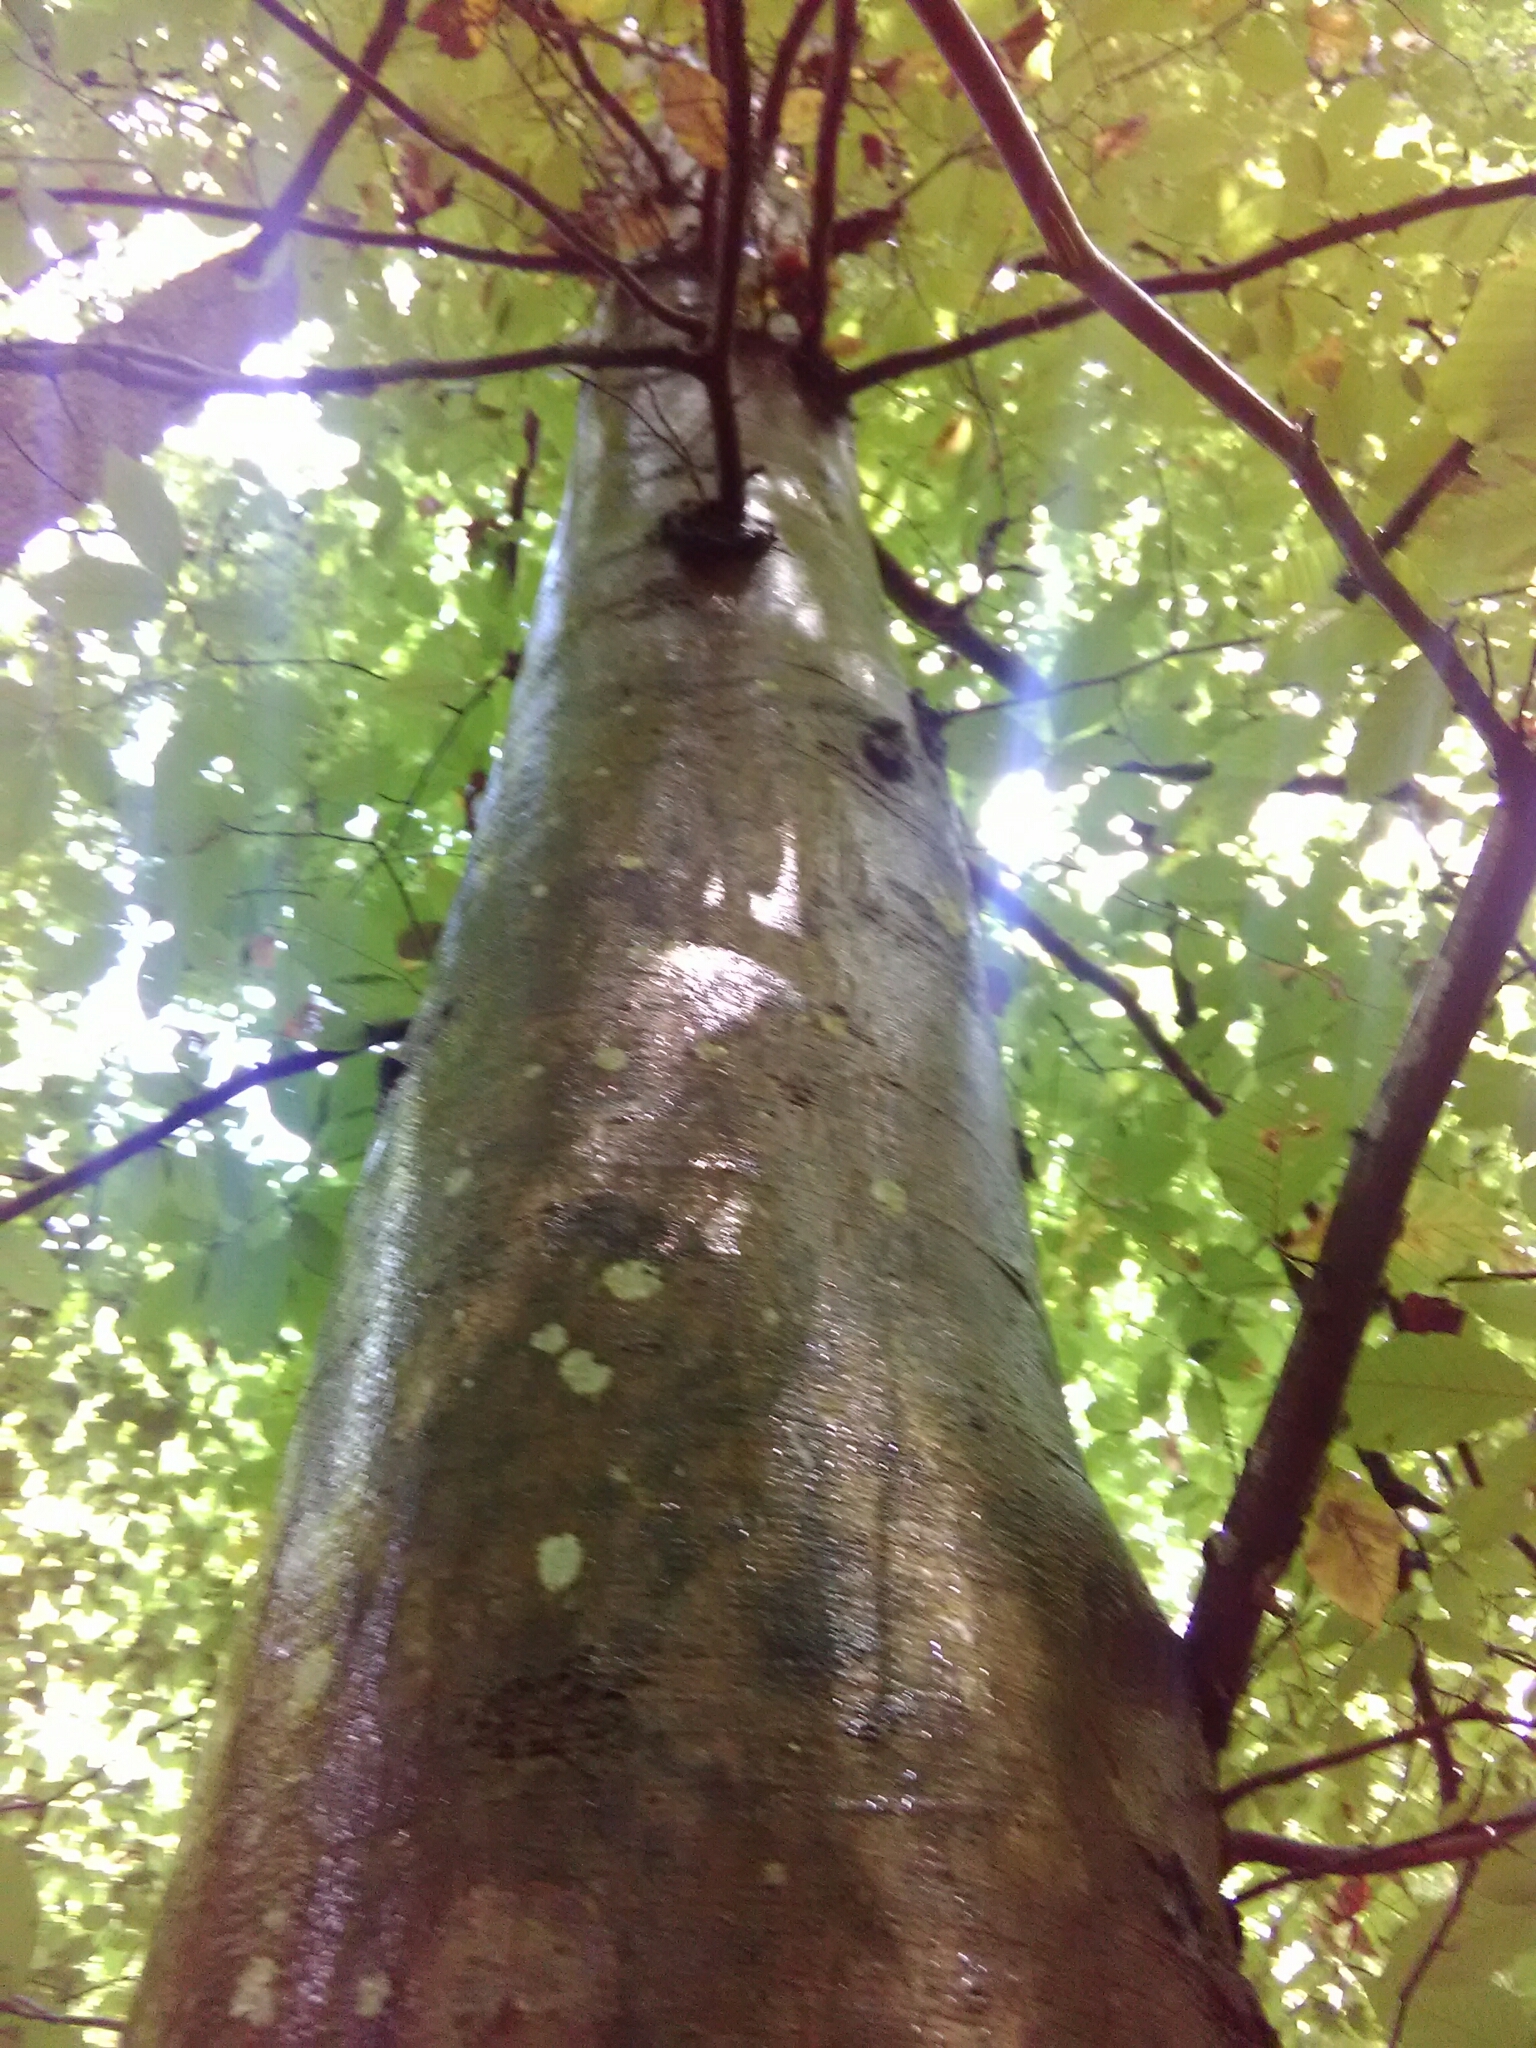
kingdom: Plantae
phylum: Tracheophyta
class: Magnoliopsida
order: Fagales
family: Fagaceae
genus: Fagus
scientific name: Fagus grandifolia
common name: American beech
